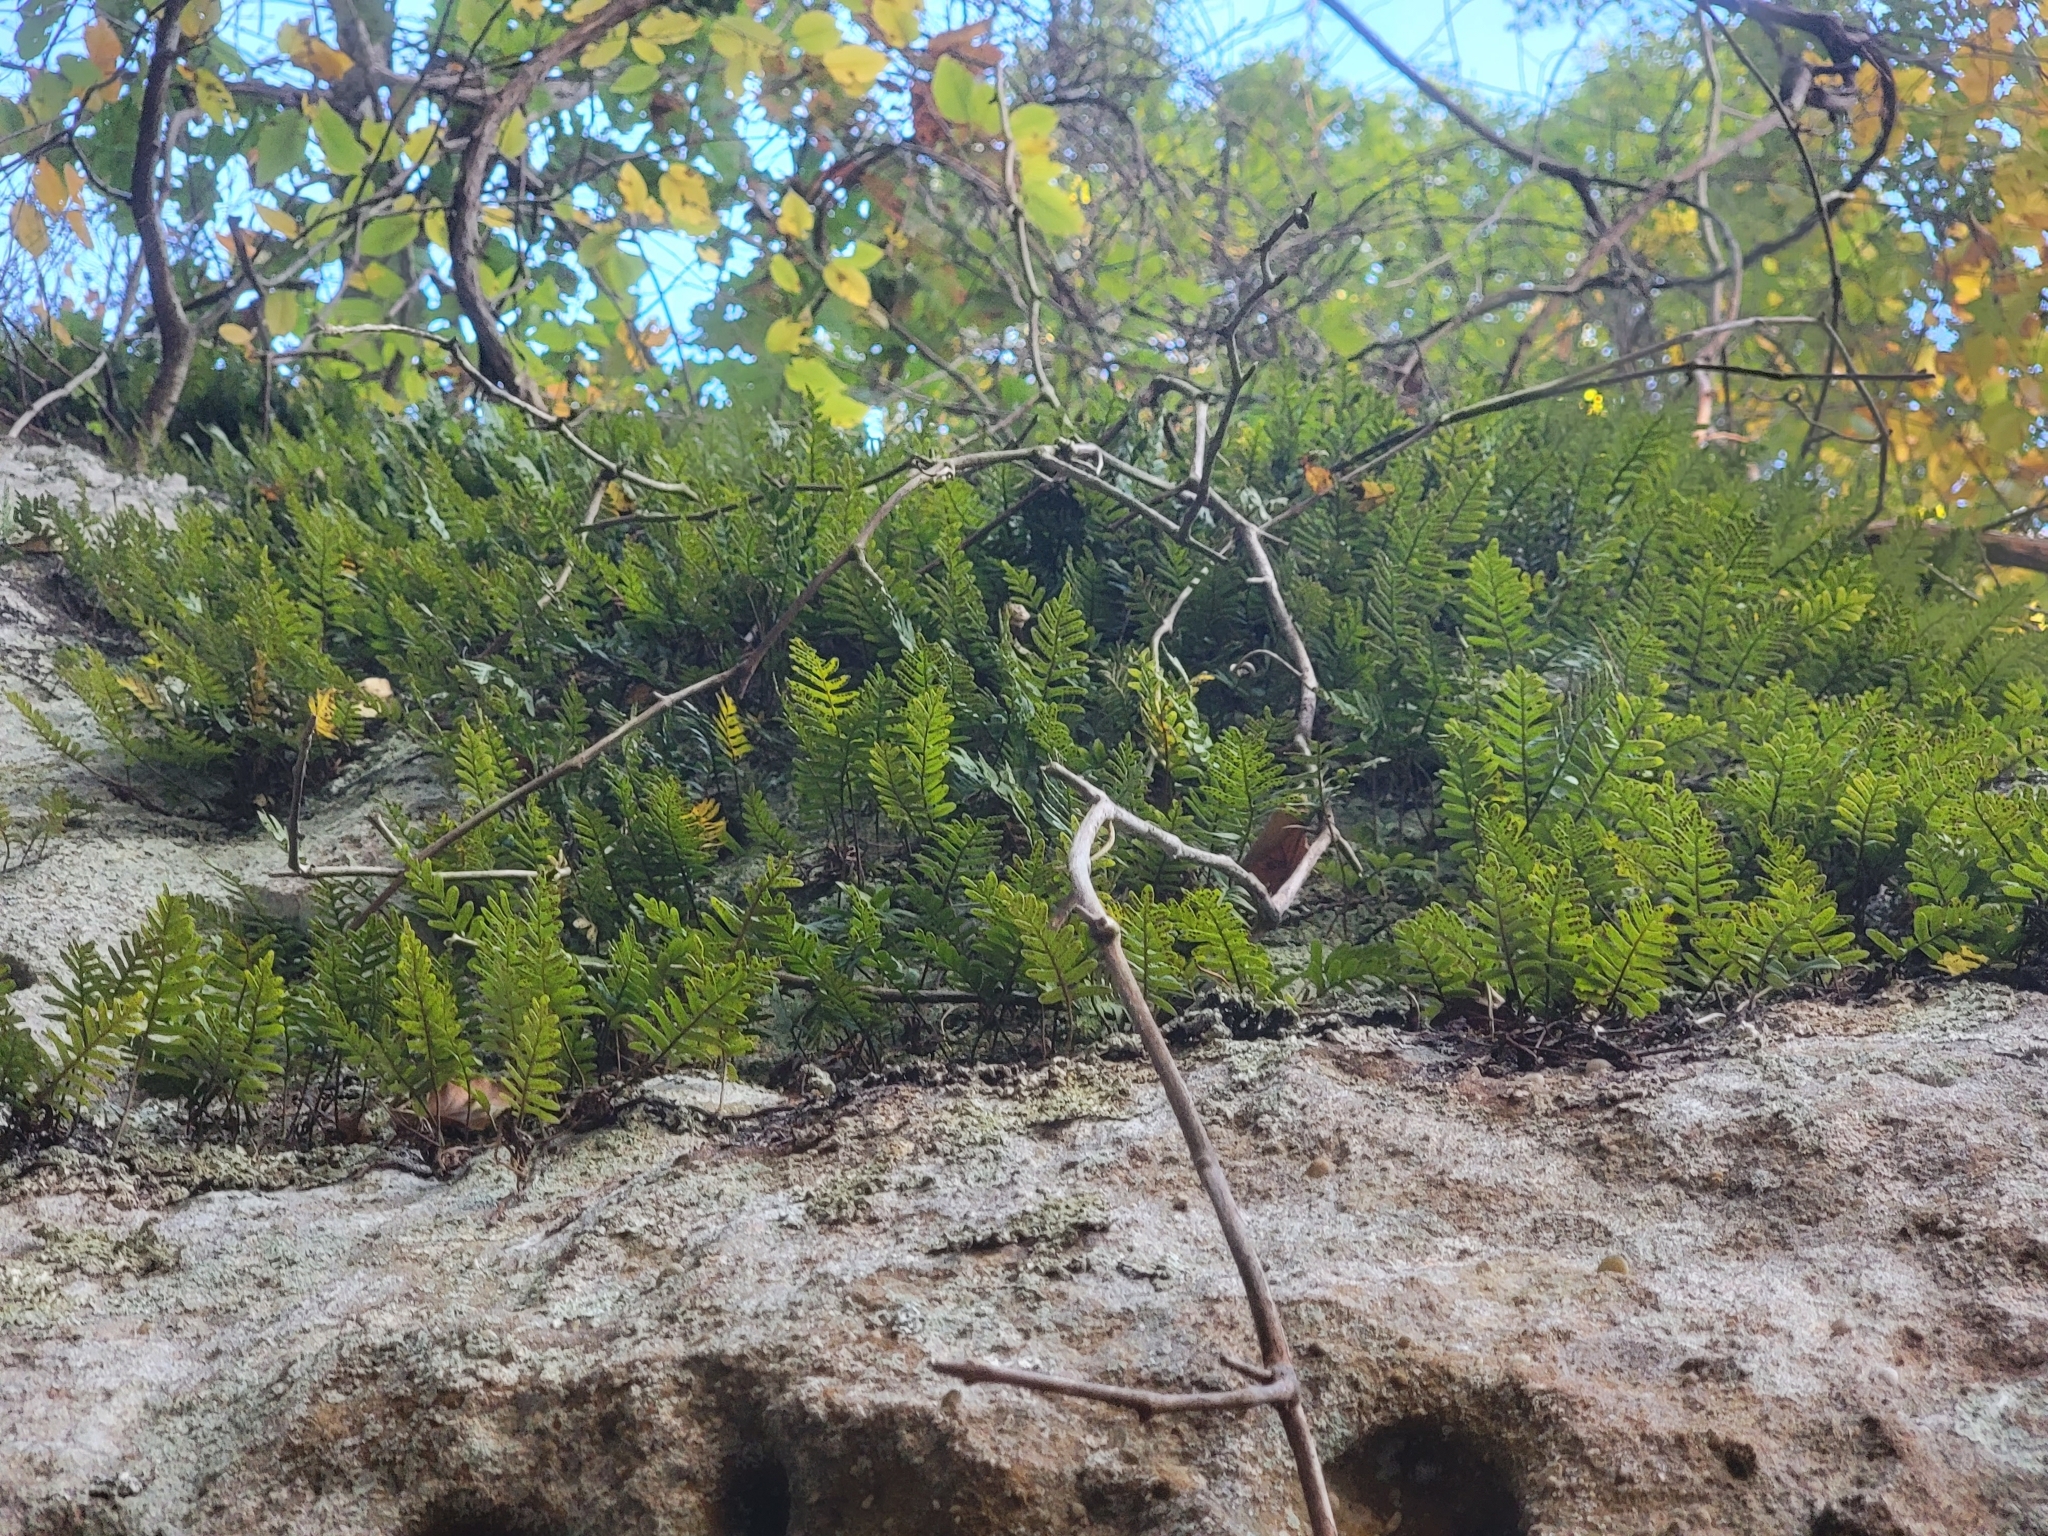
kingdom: Plantae
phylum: Tracheophyta
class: Polypodiopsida
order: Polypodiales
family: Polypodiaceae
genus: Pleopeltis
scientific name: Pleopeltis michauxiana
